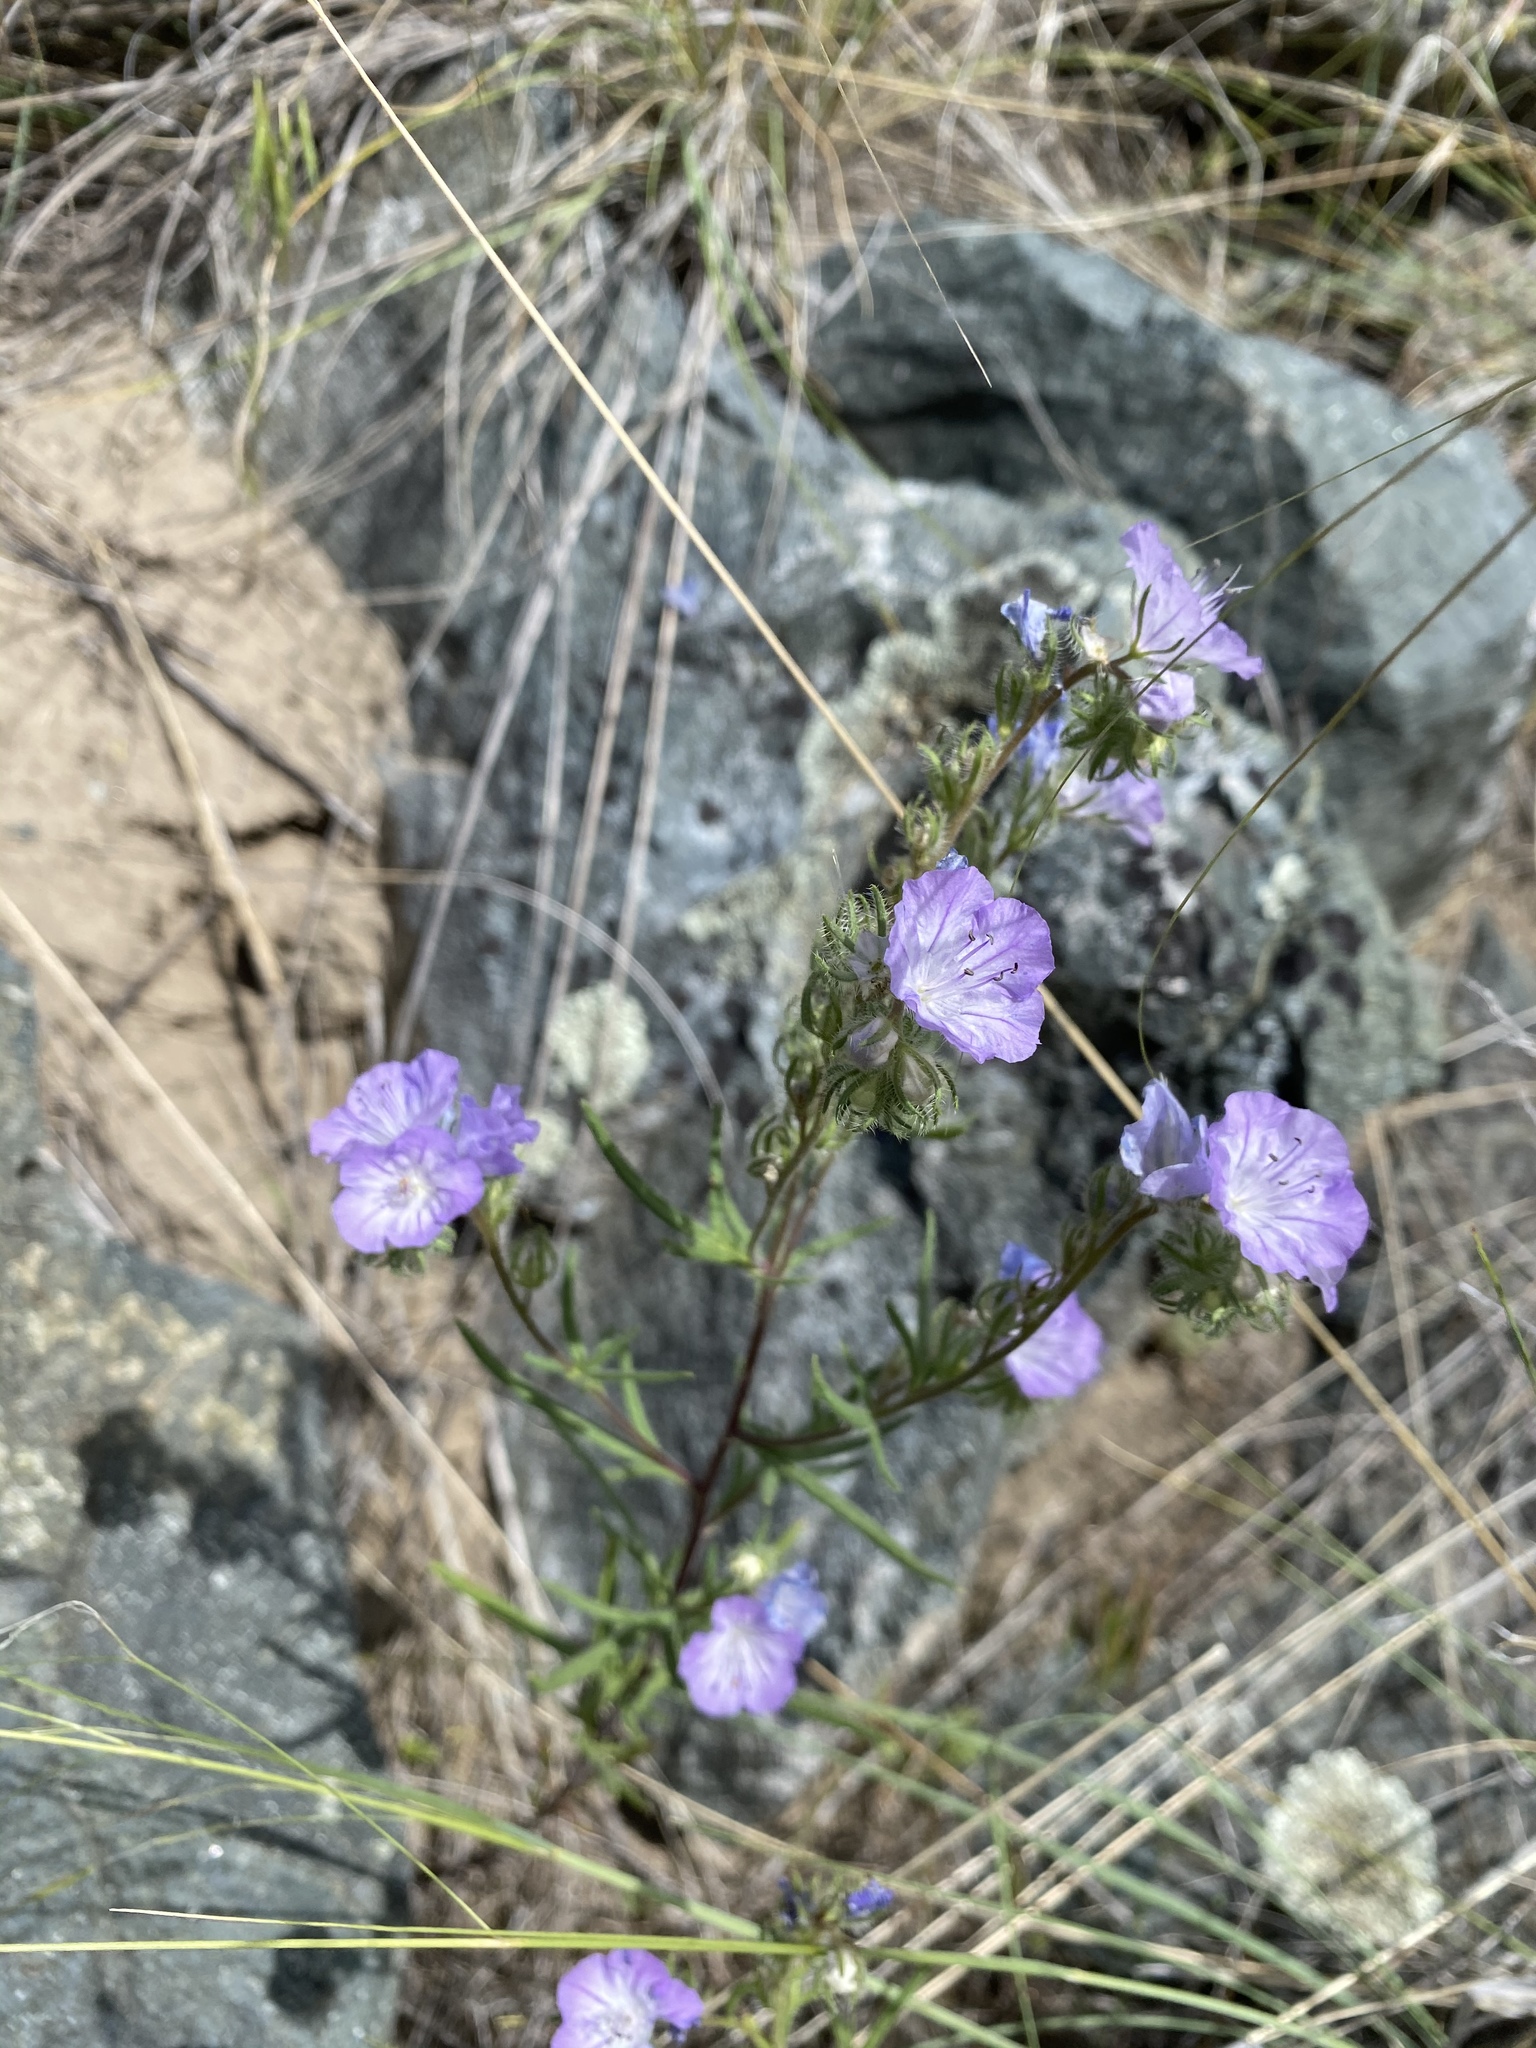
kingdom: Plantae
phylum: Tracheophyta
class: Magnoliopsida
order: Boraginales
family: Hydrophyllaceae
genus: Phacelia
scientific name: Phacelia linearis
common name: Linear-leaved phacelia
